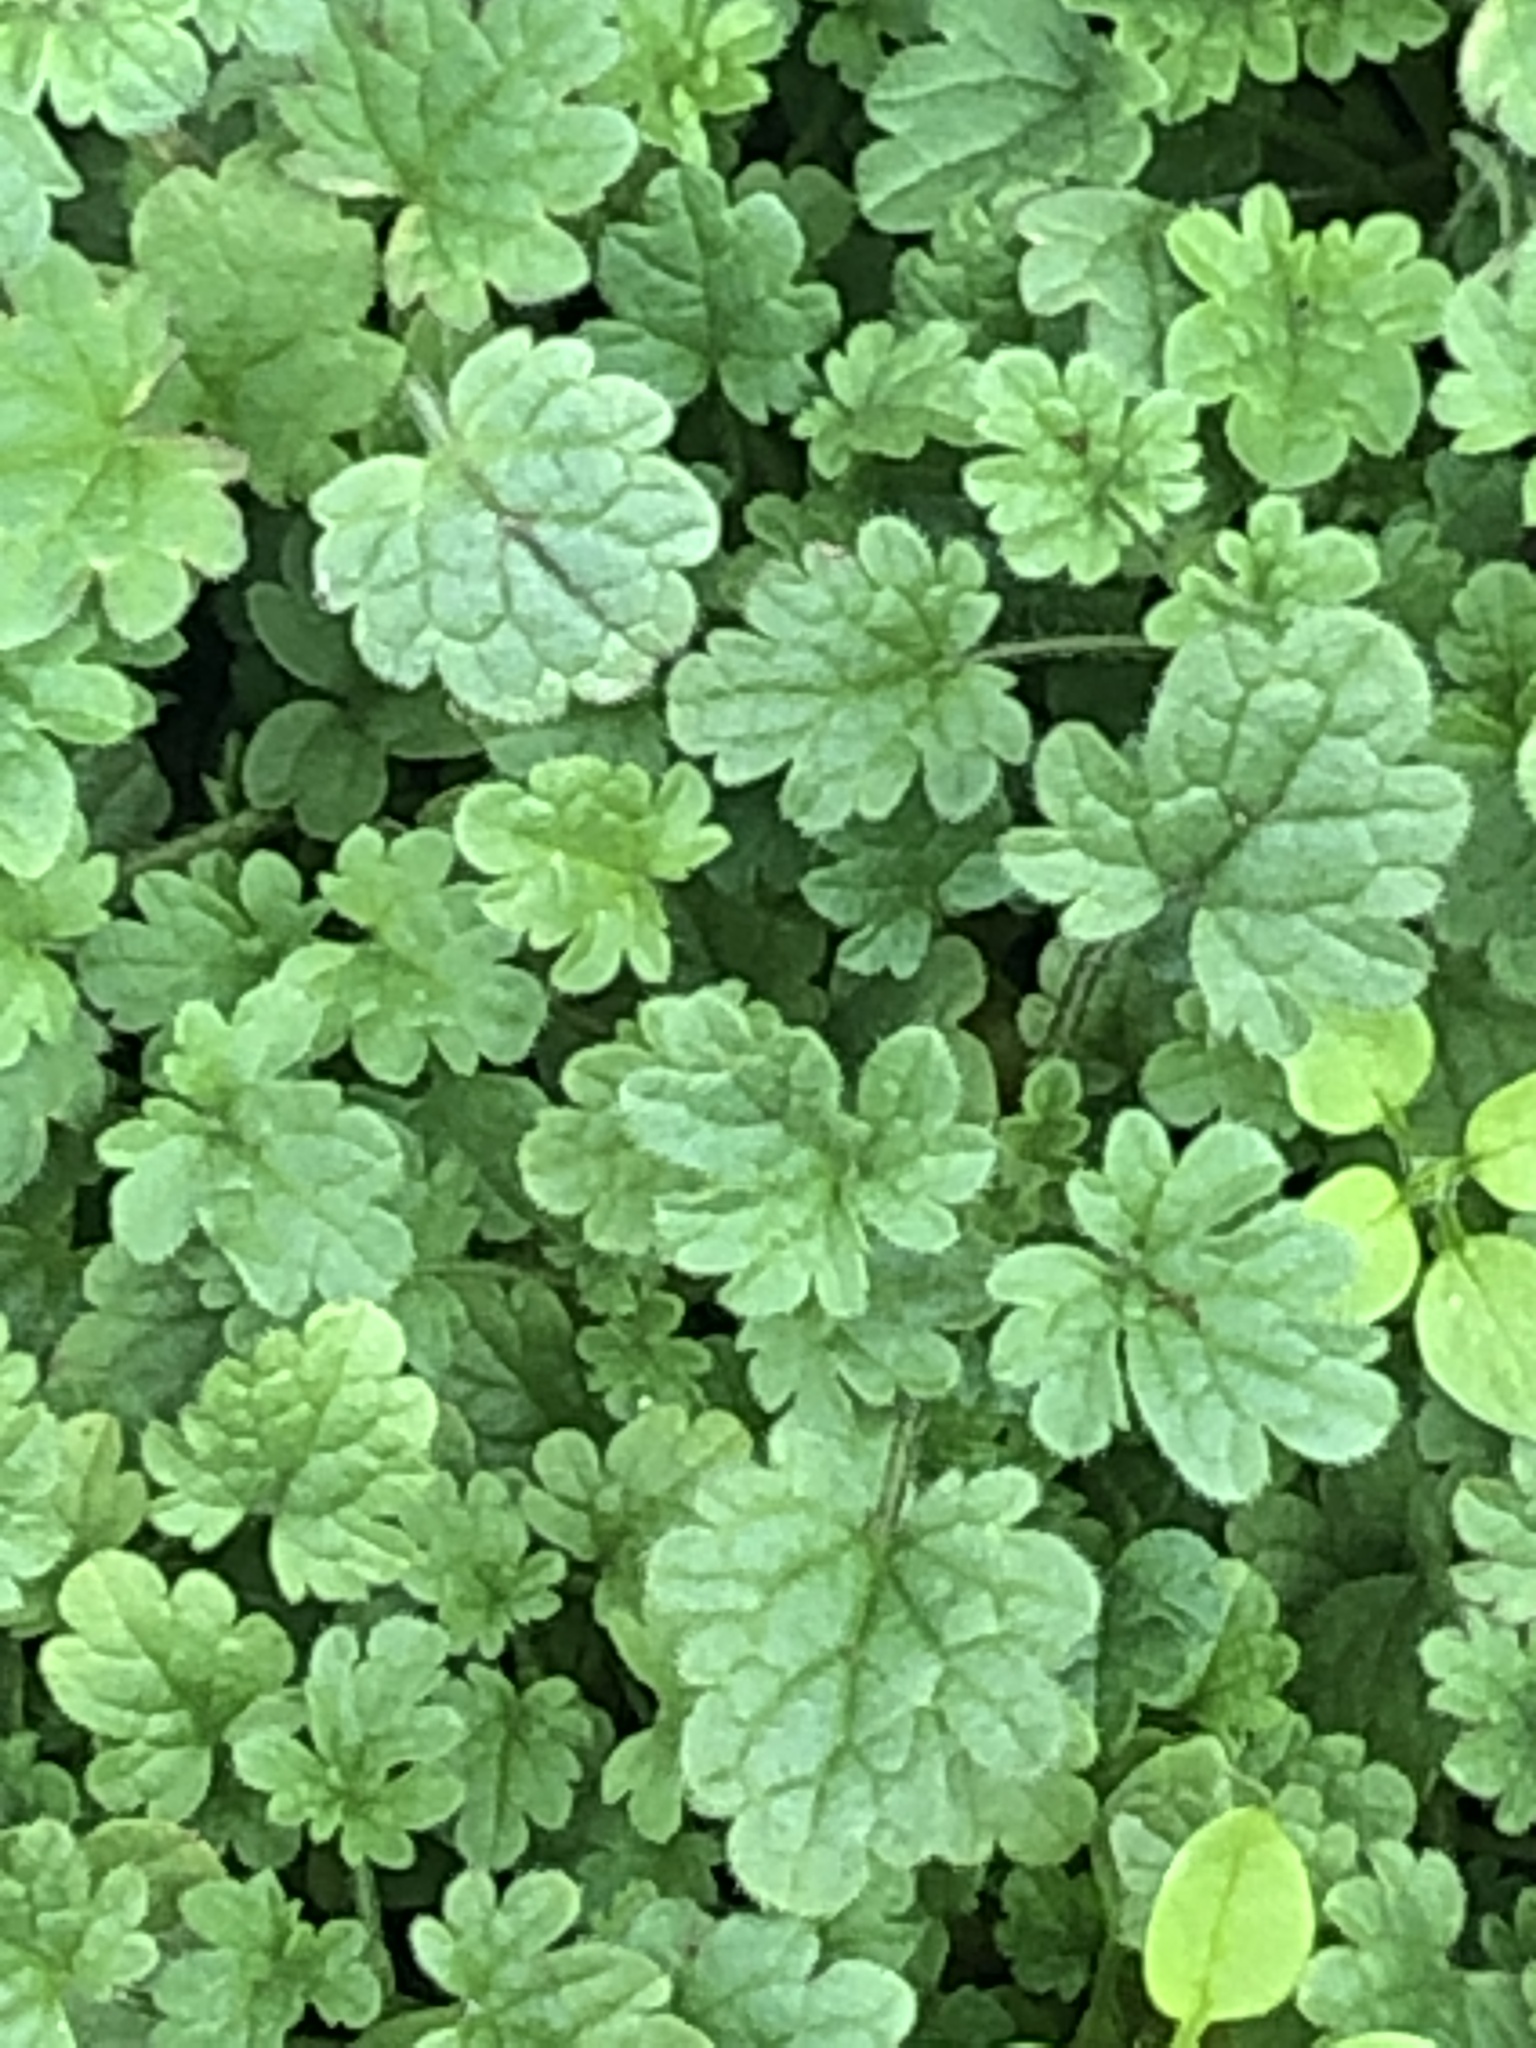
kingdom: Plantae
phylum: Tracheophyta
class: Magnoliopsida
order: Lamiales
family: Lamiaceae
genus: Lamium
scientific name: Lamium amplexicaule
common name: Henbit dead-nettle
